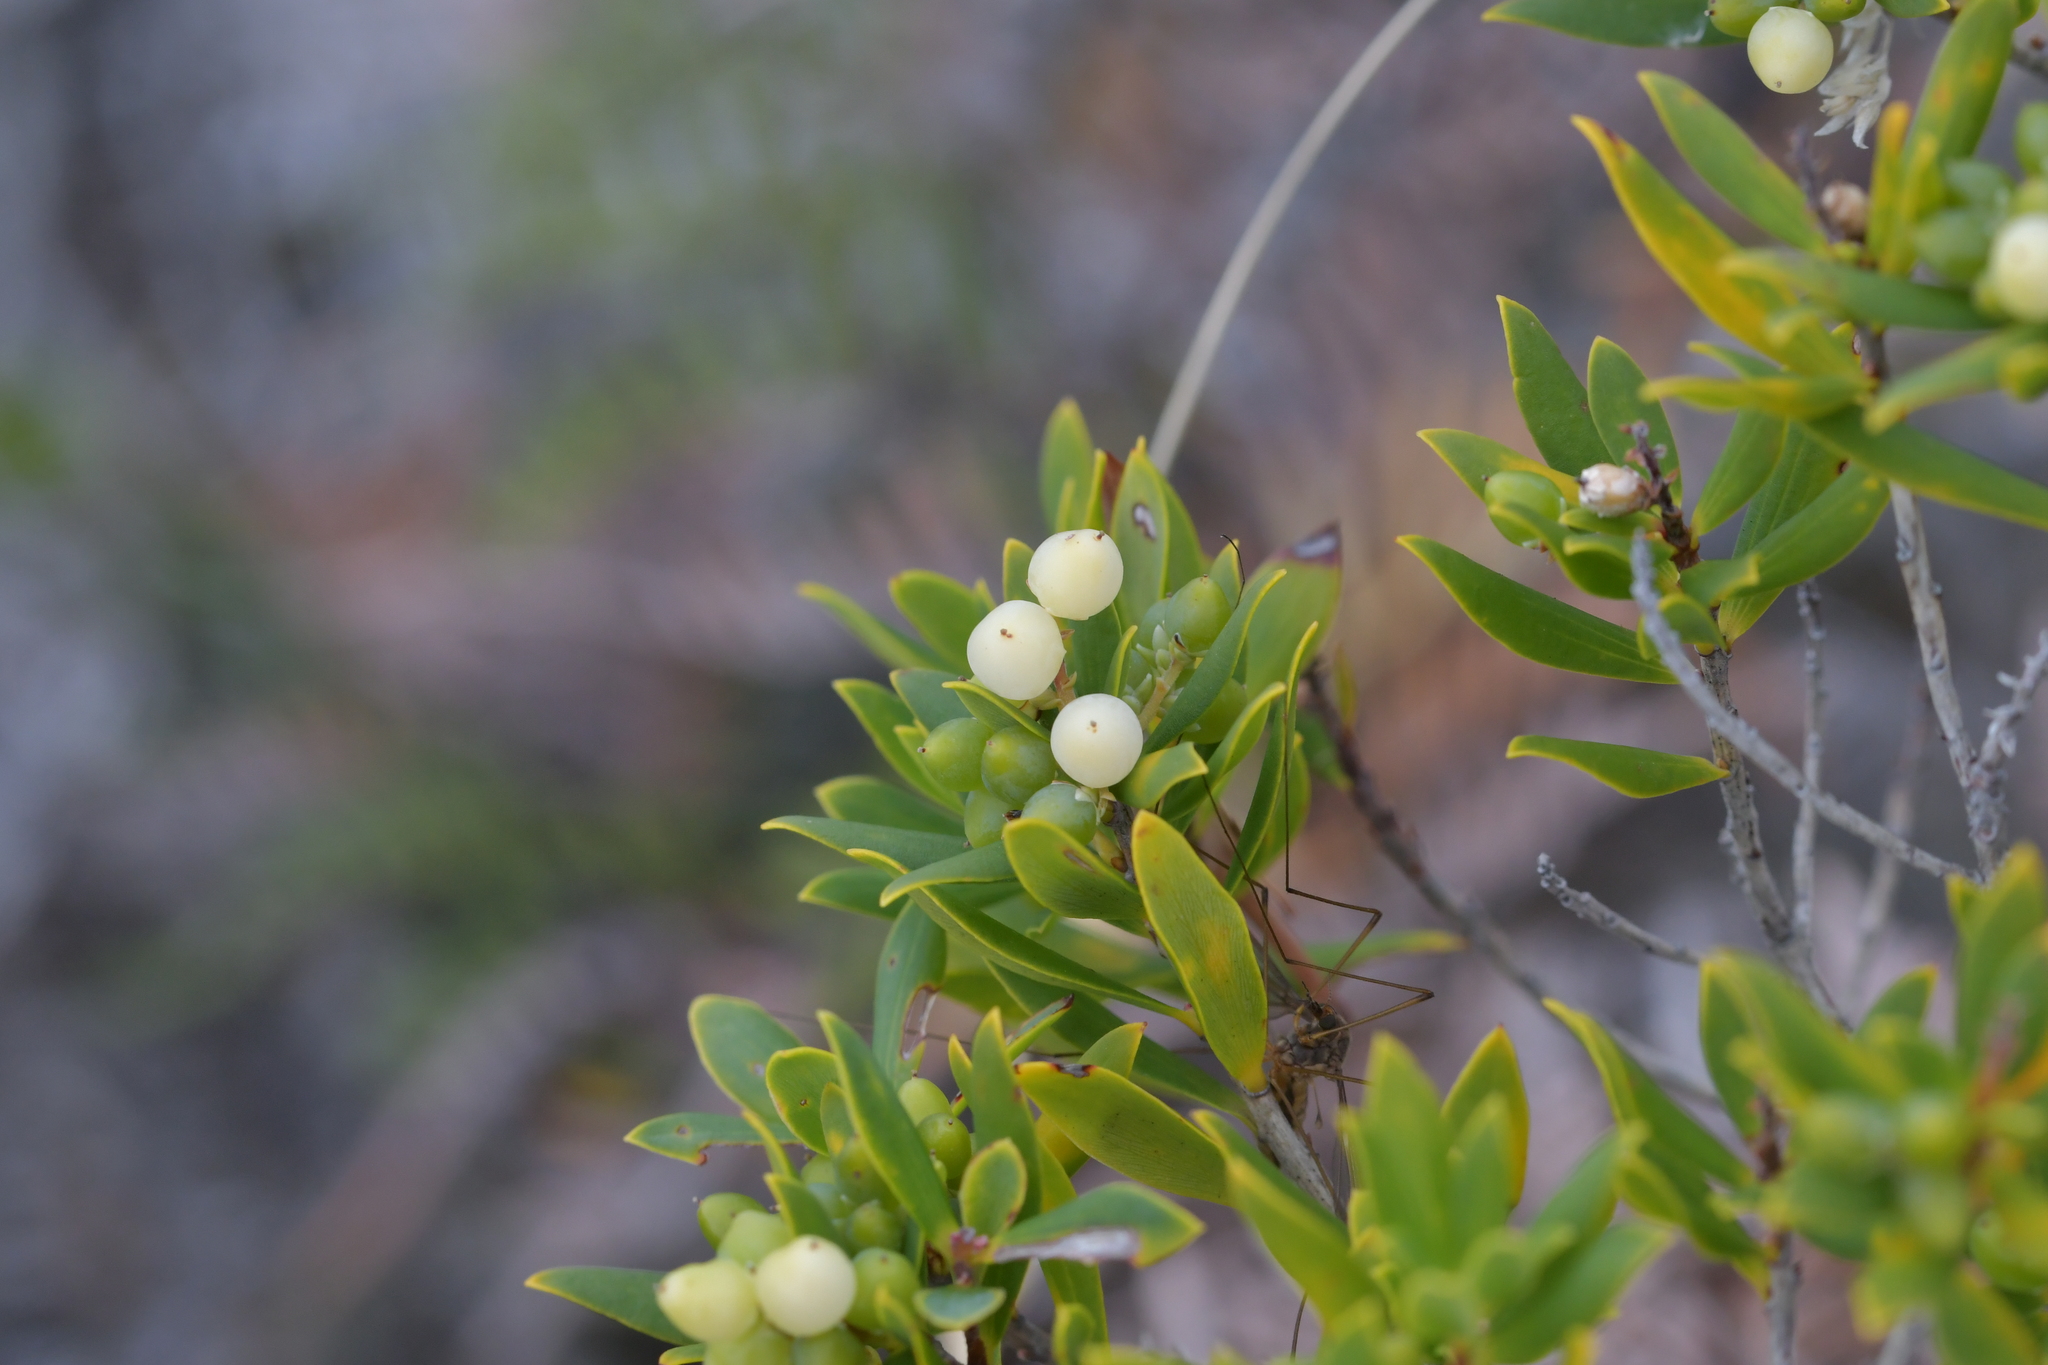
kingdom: Plantae
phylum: Tracheophyta
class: Magnoliopsida
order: Ericales
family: Ericaceae
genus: Leptecophylla
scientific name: Leptecophylla parvifolia
